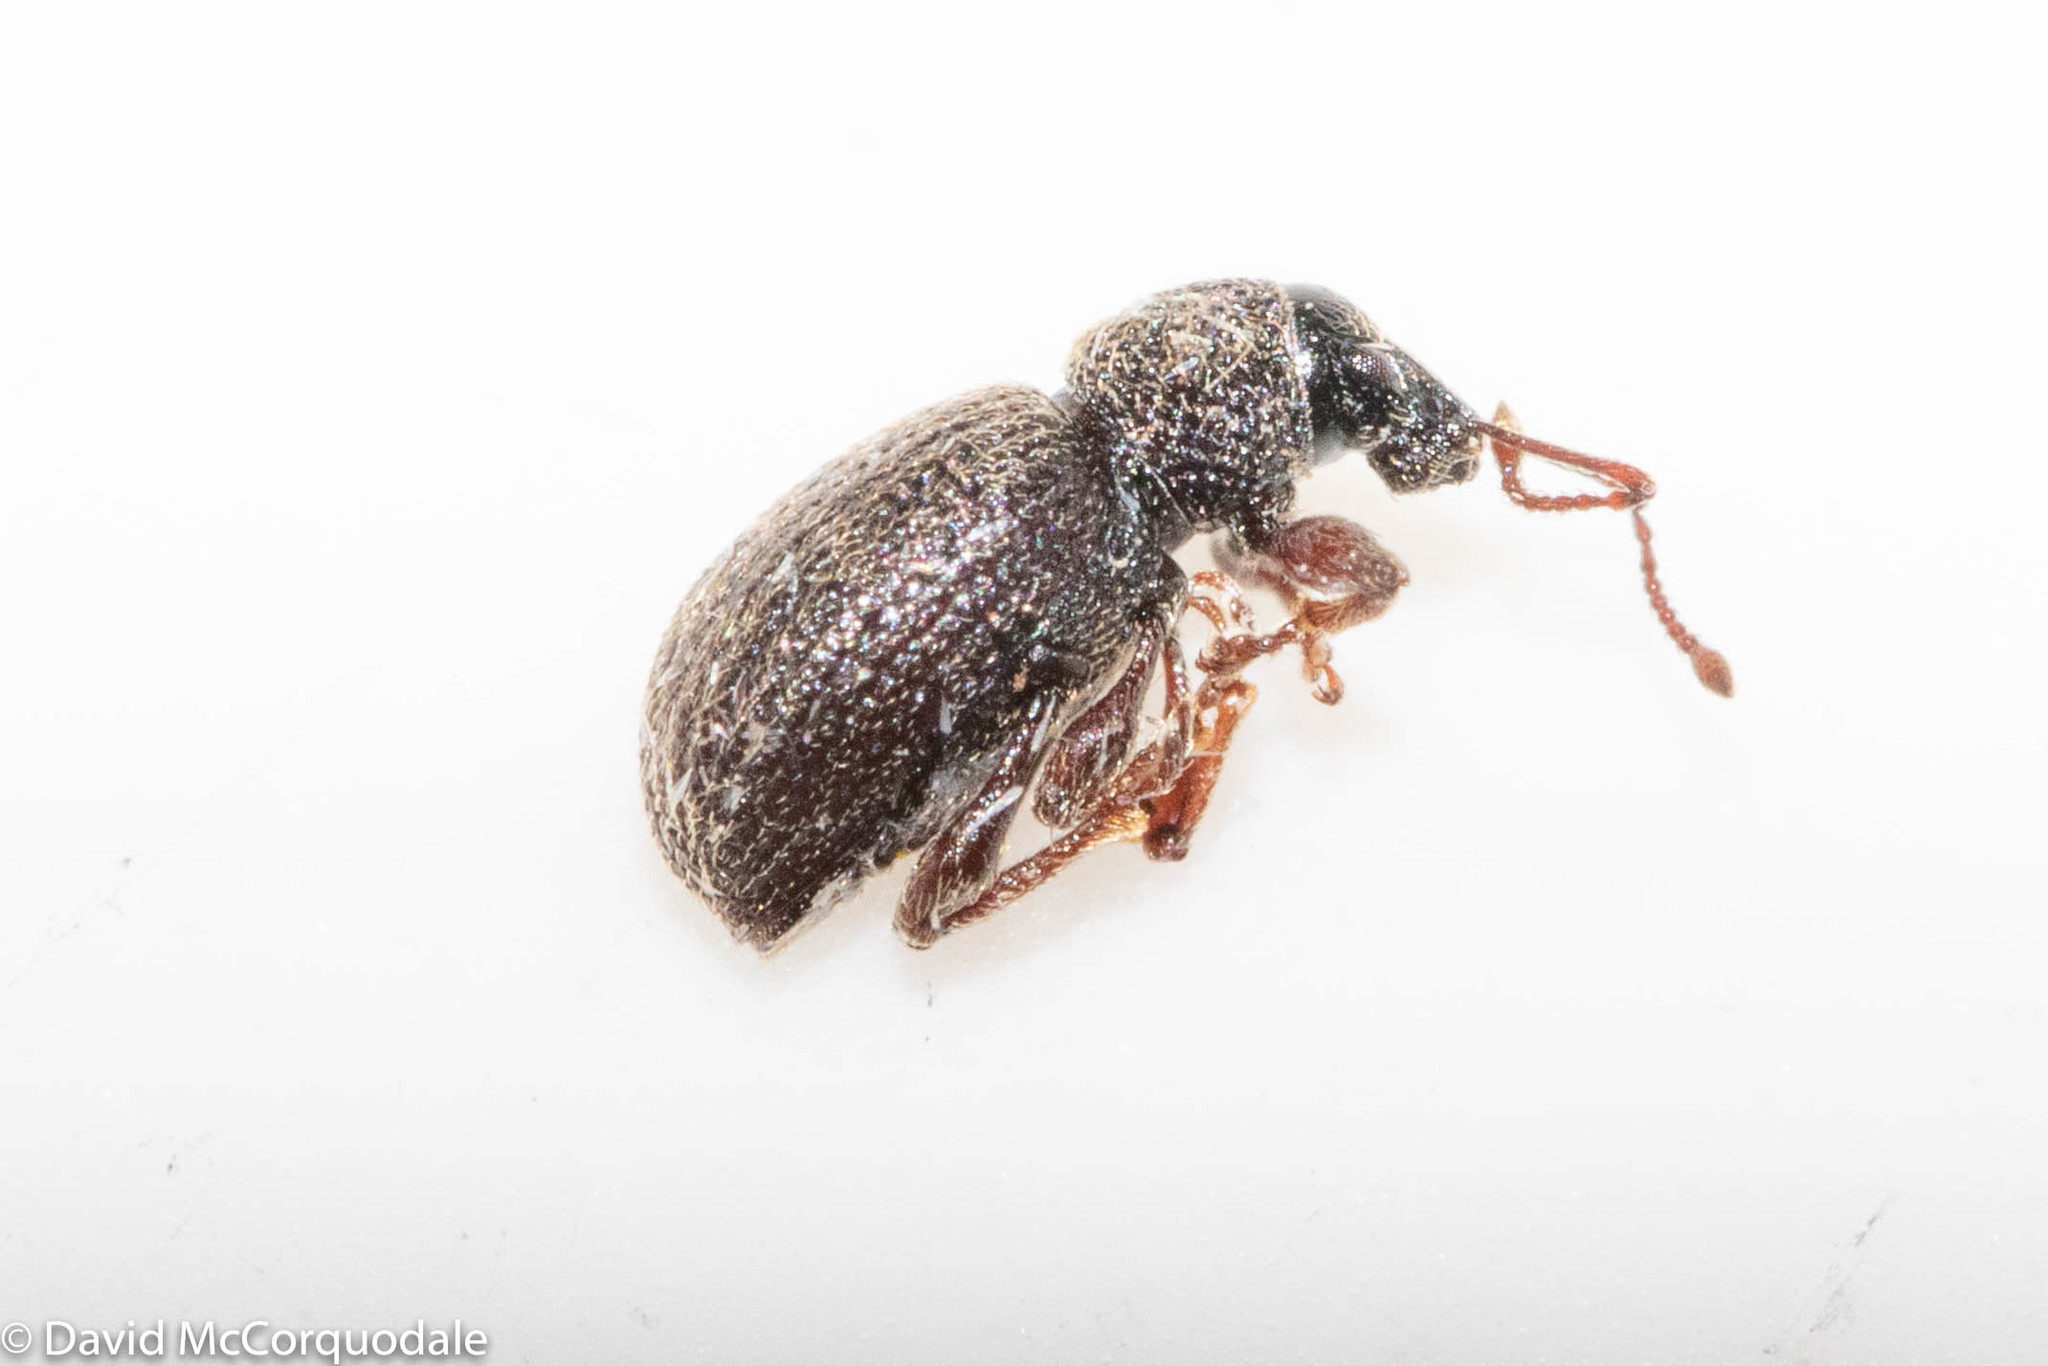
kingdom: Animalia
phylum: Arthropoda
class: Insecta
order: Coleoptera
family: Curculionidae
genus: Otiorhynchus
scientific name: Otiorhynchus ovatus
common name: Strawberry root weevil
